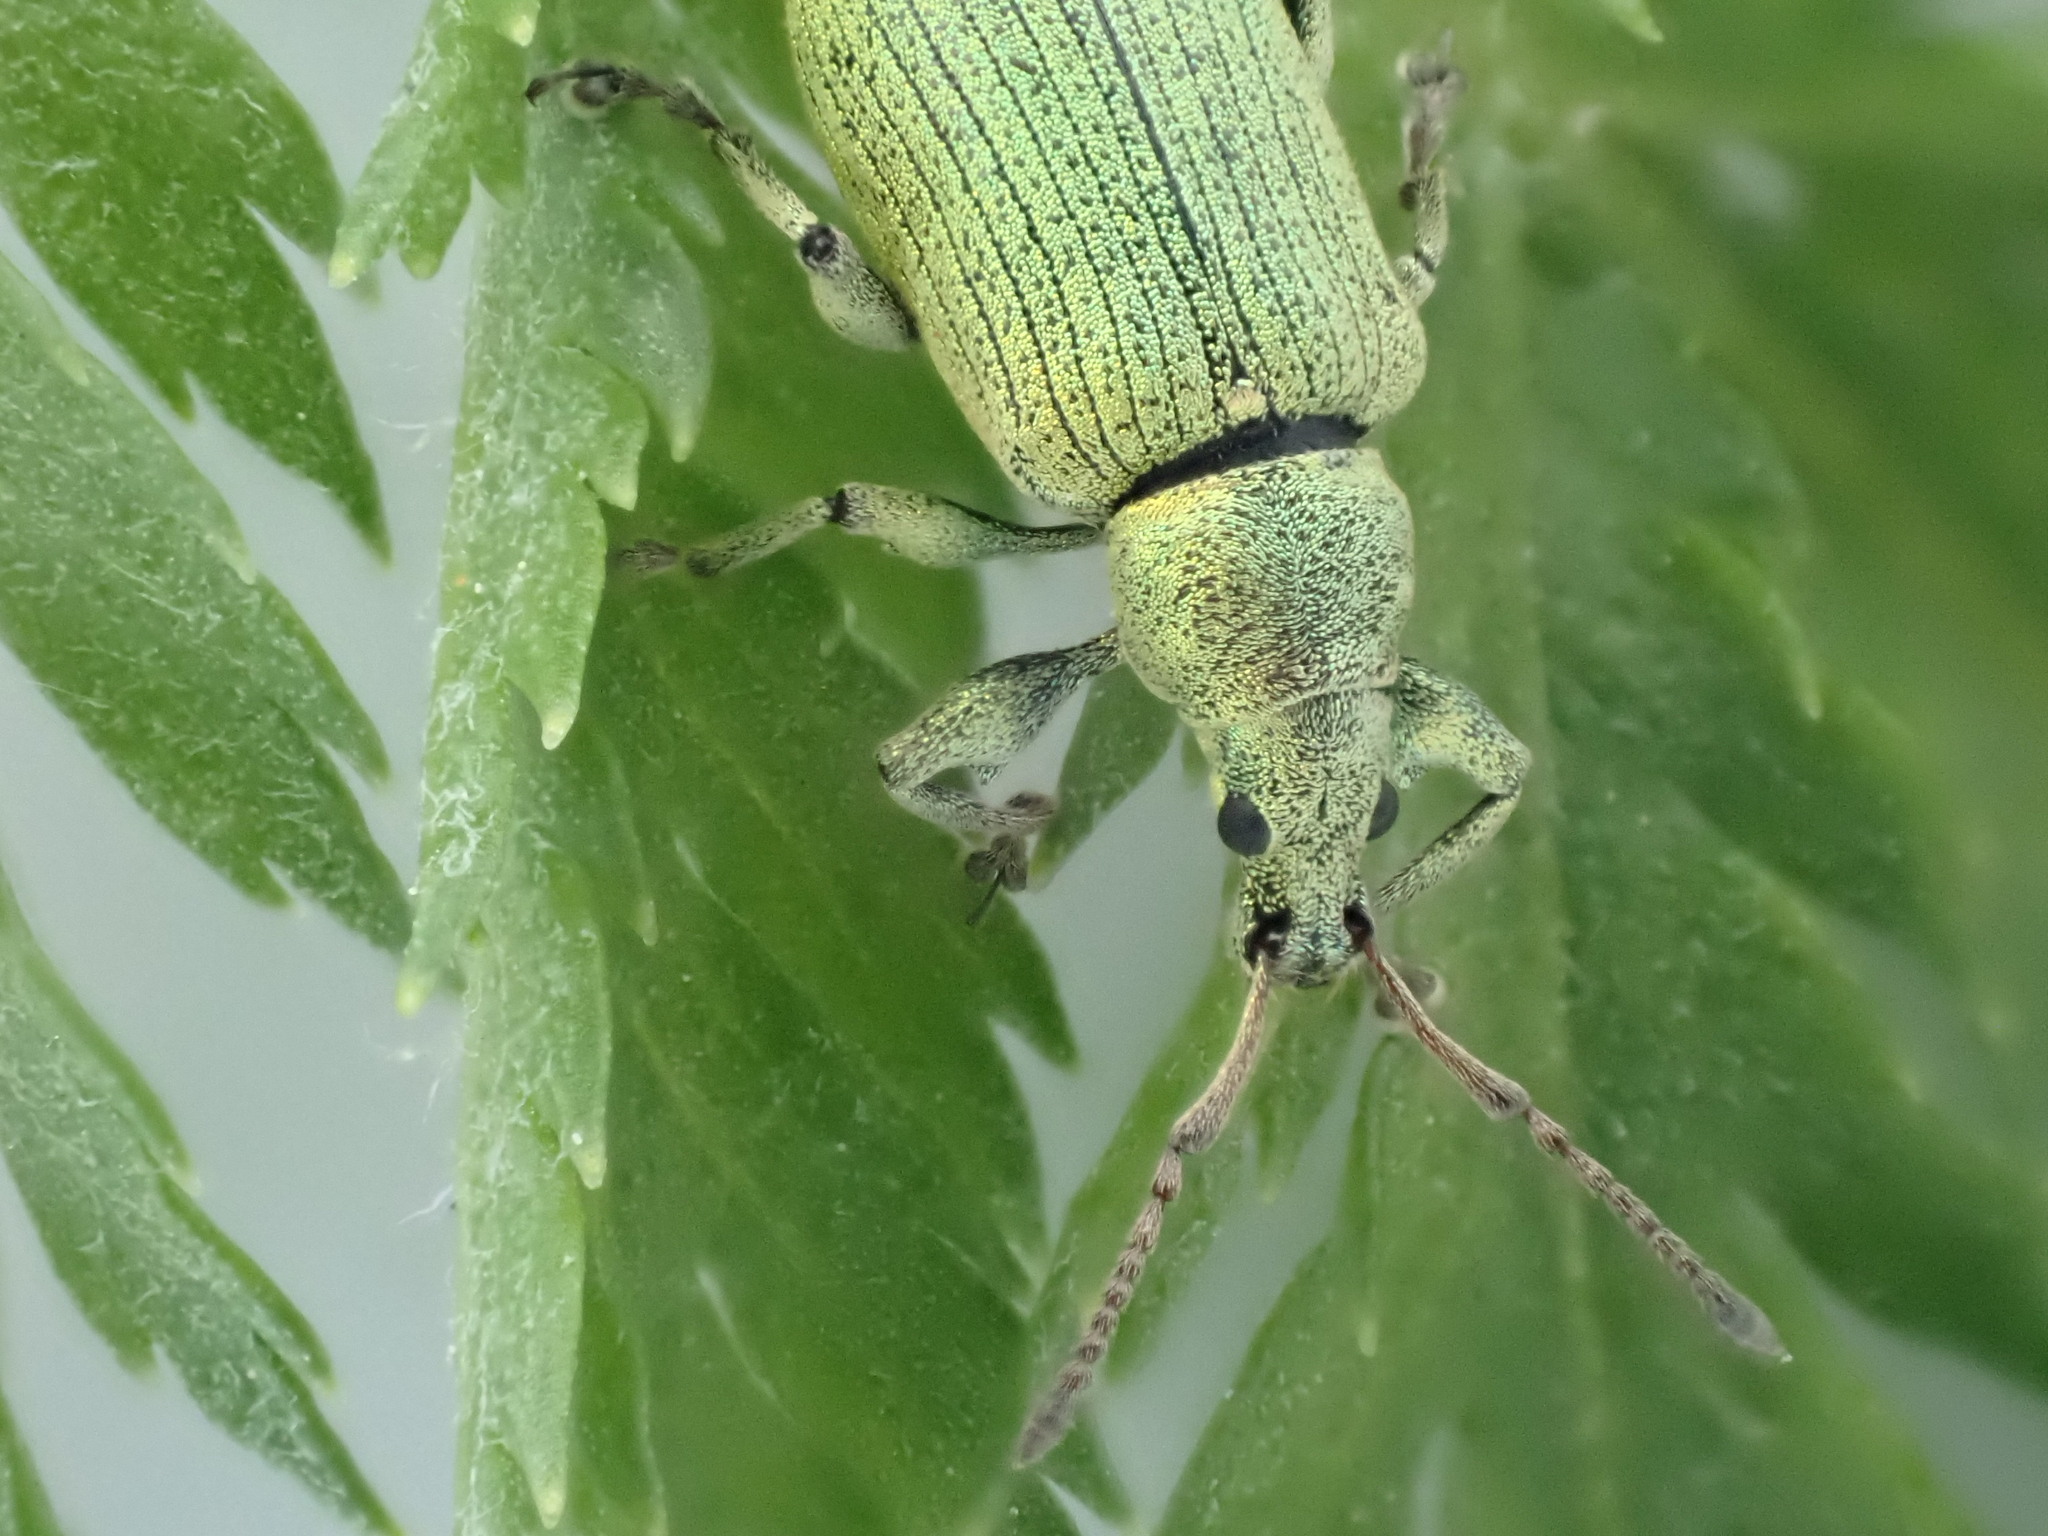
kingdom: Animalia
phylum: Arthropoda
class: Insecta
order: Coleoptera
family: Curculionidae
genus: Phyllobius
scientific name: Phyllobius maculicornis
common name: Green leaf weevil
